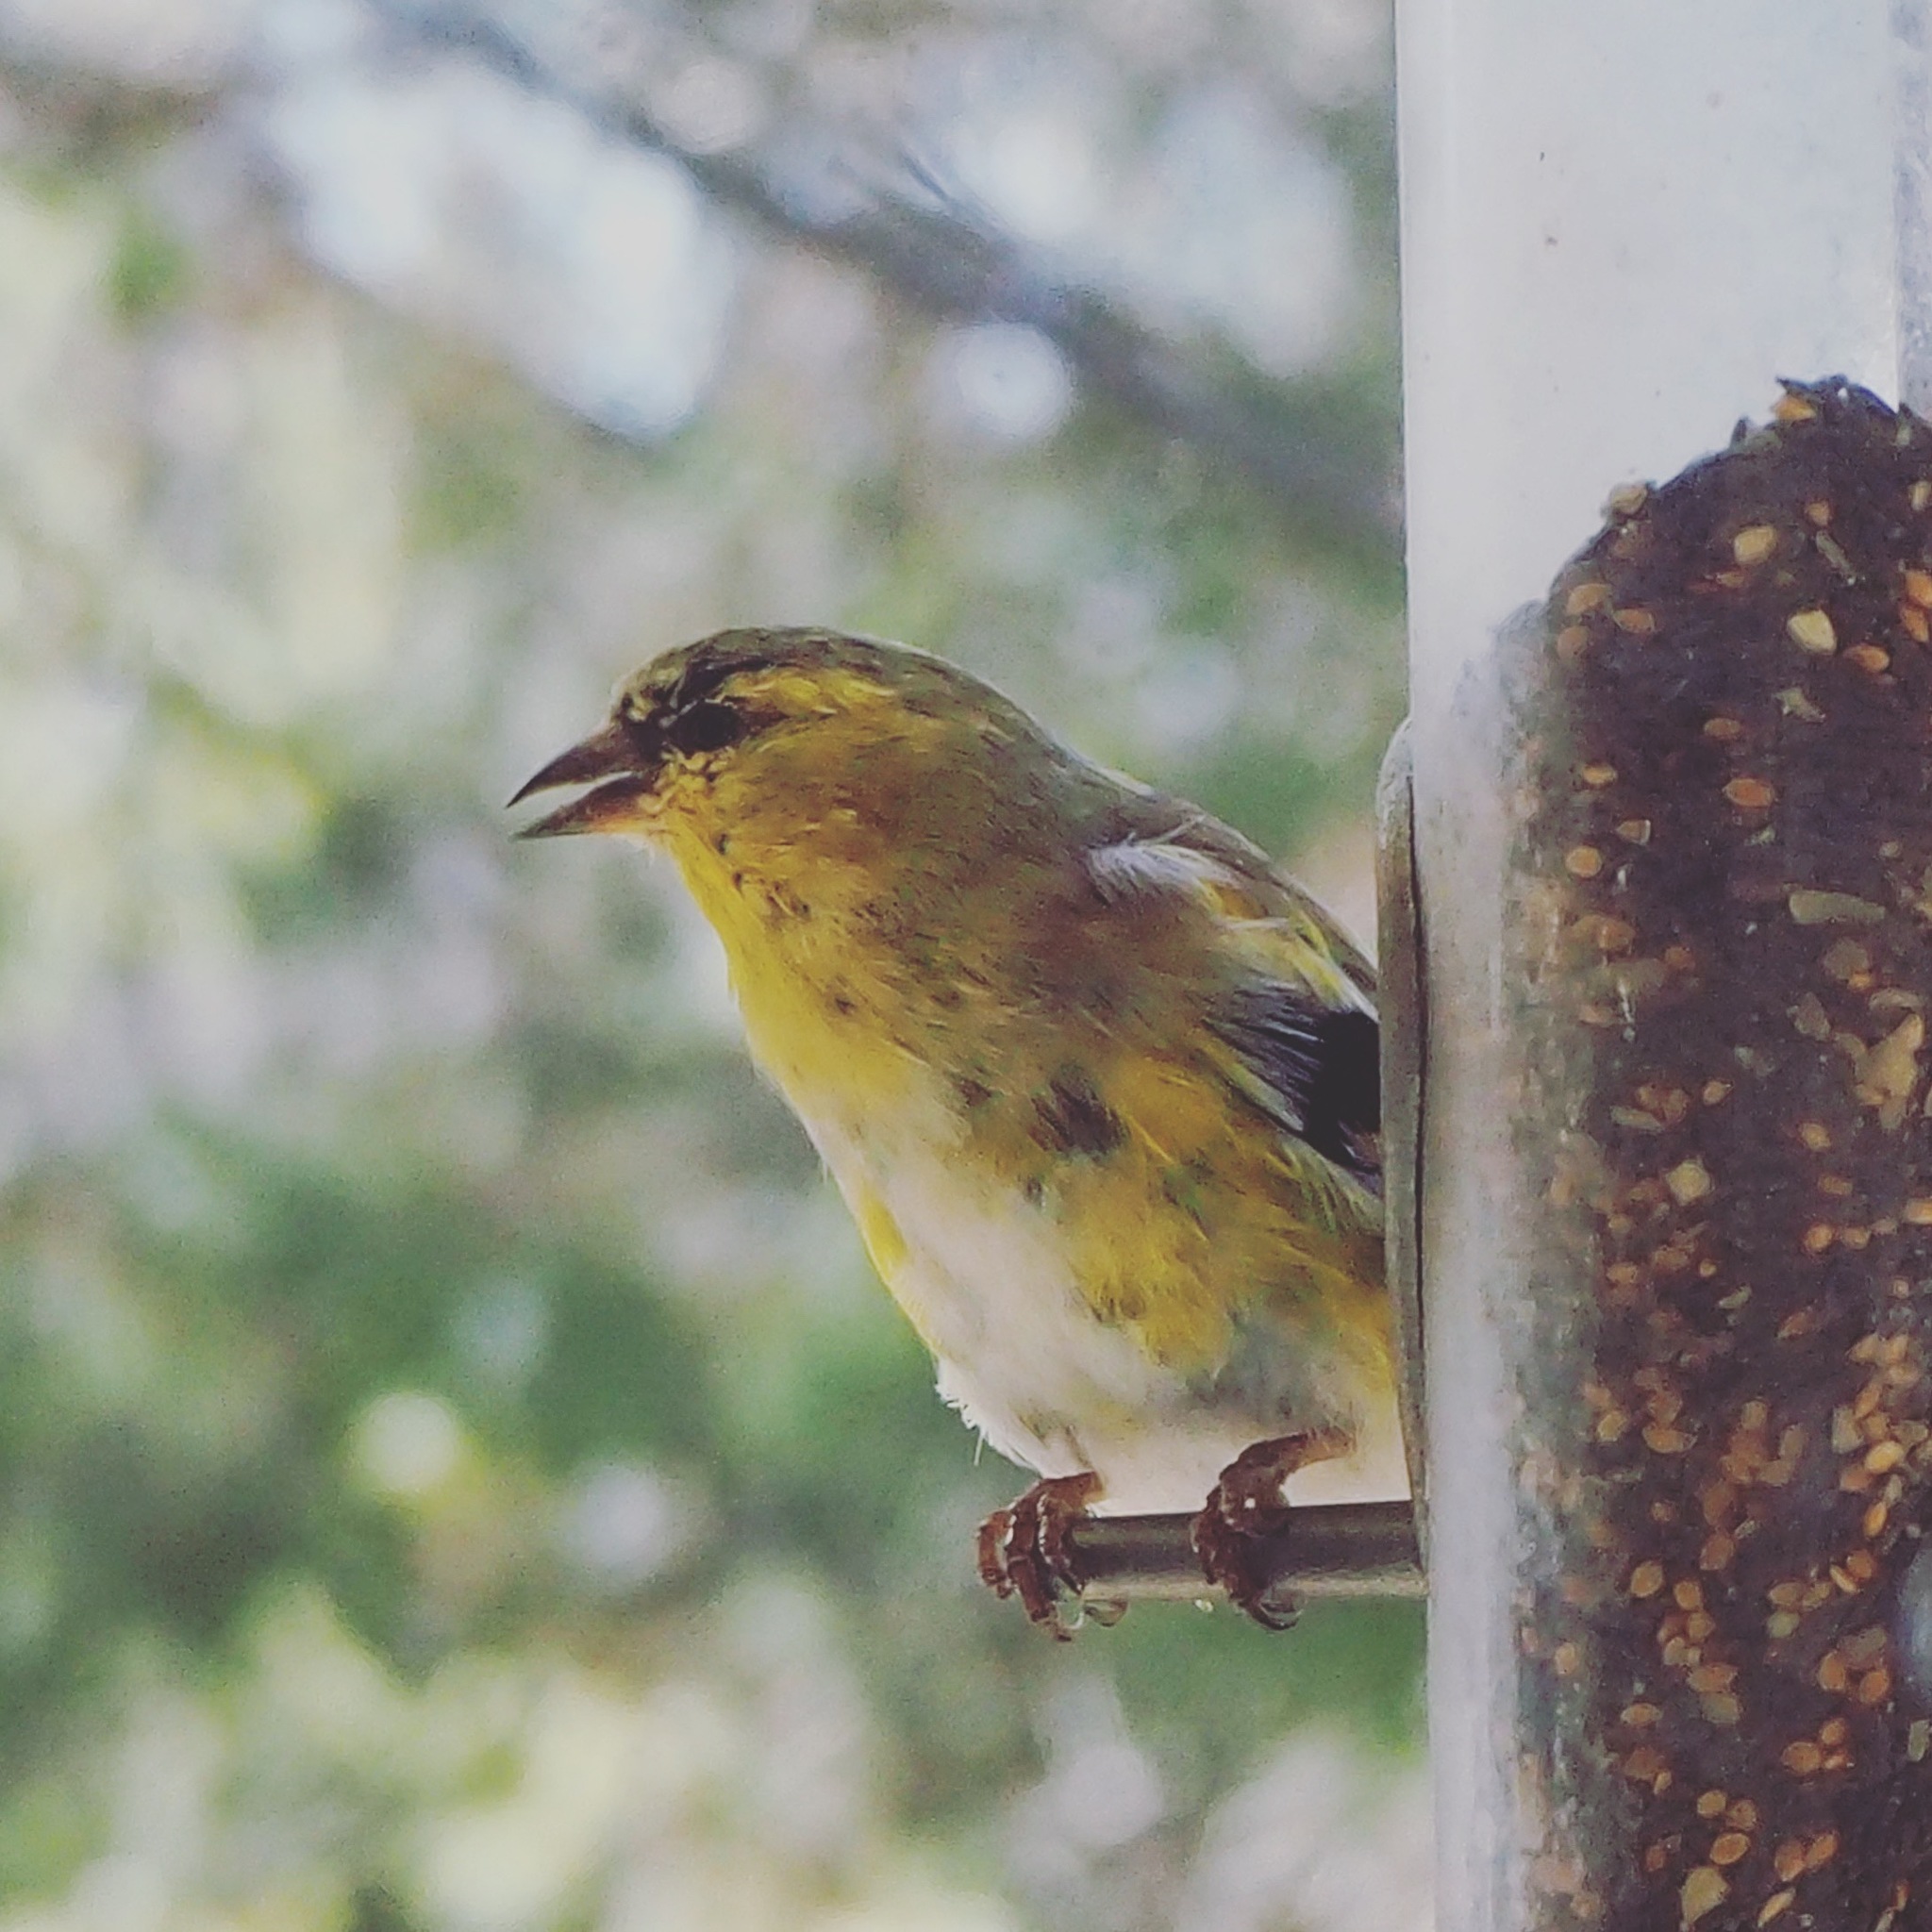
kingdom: Animalia
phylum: Chordata
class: Aves
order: Passeriformes
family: Fringillidae
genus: Spinus
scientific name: Spinus tristis
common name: American goldfinch
